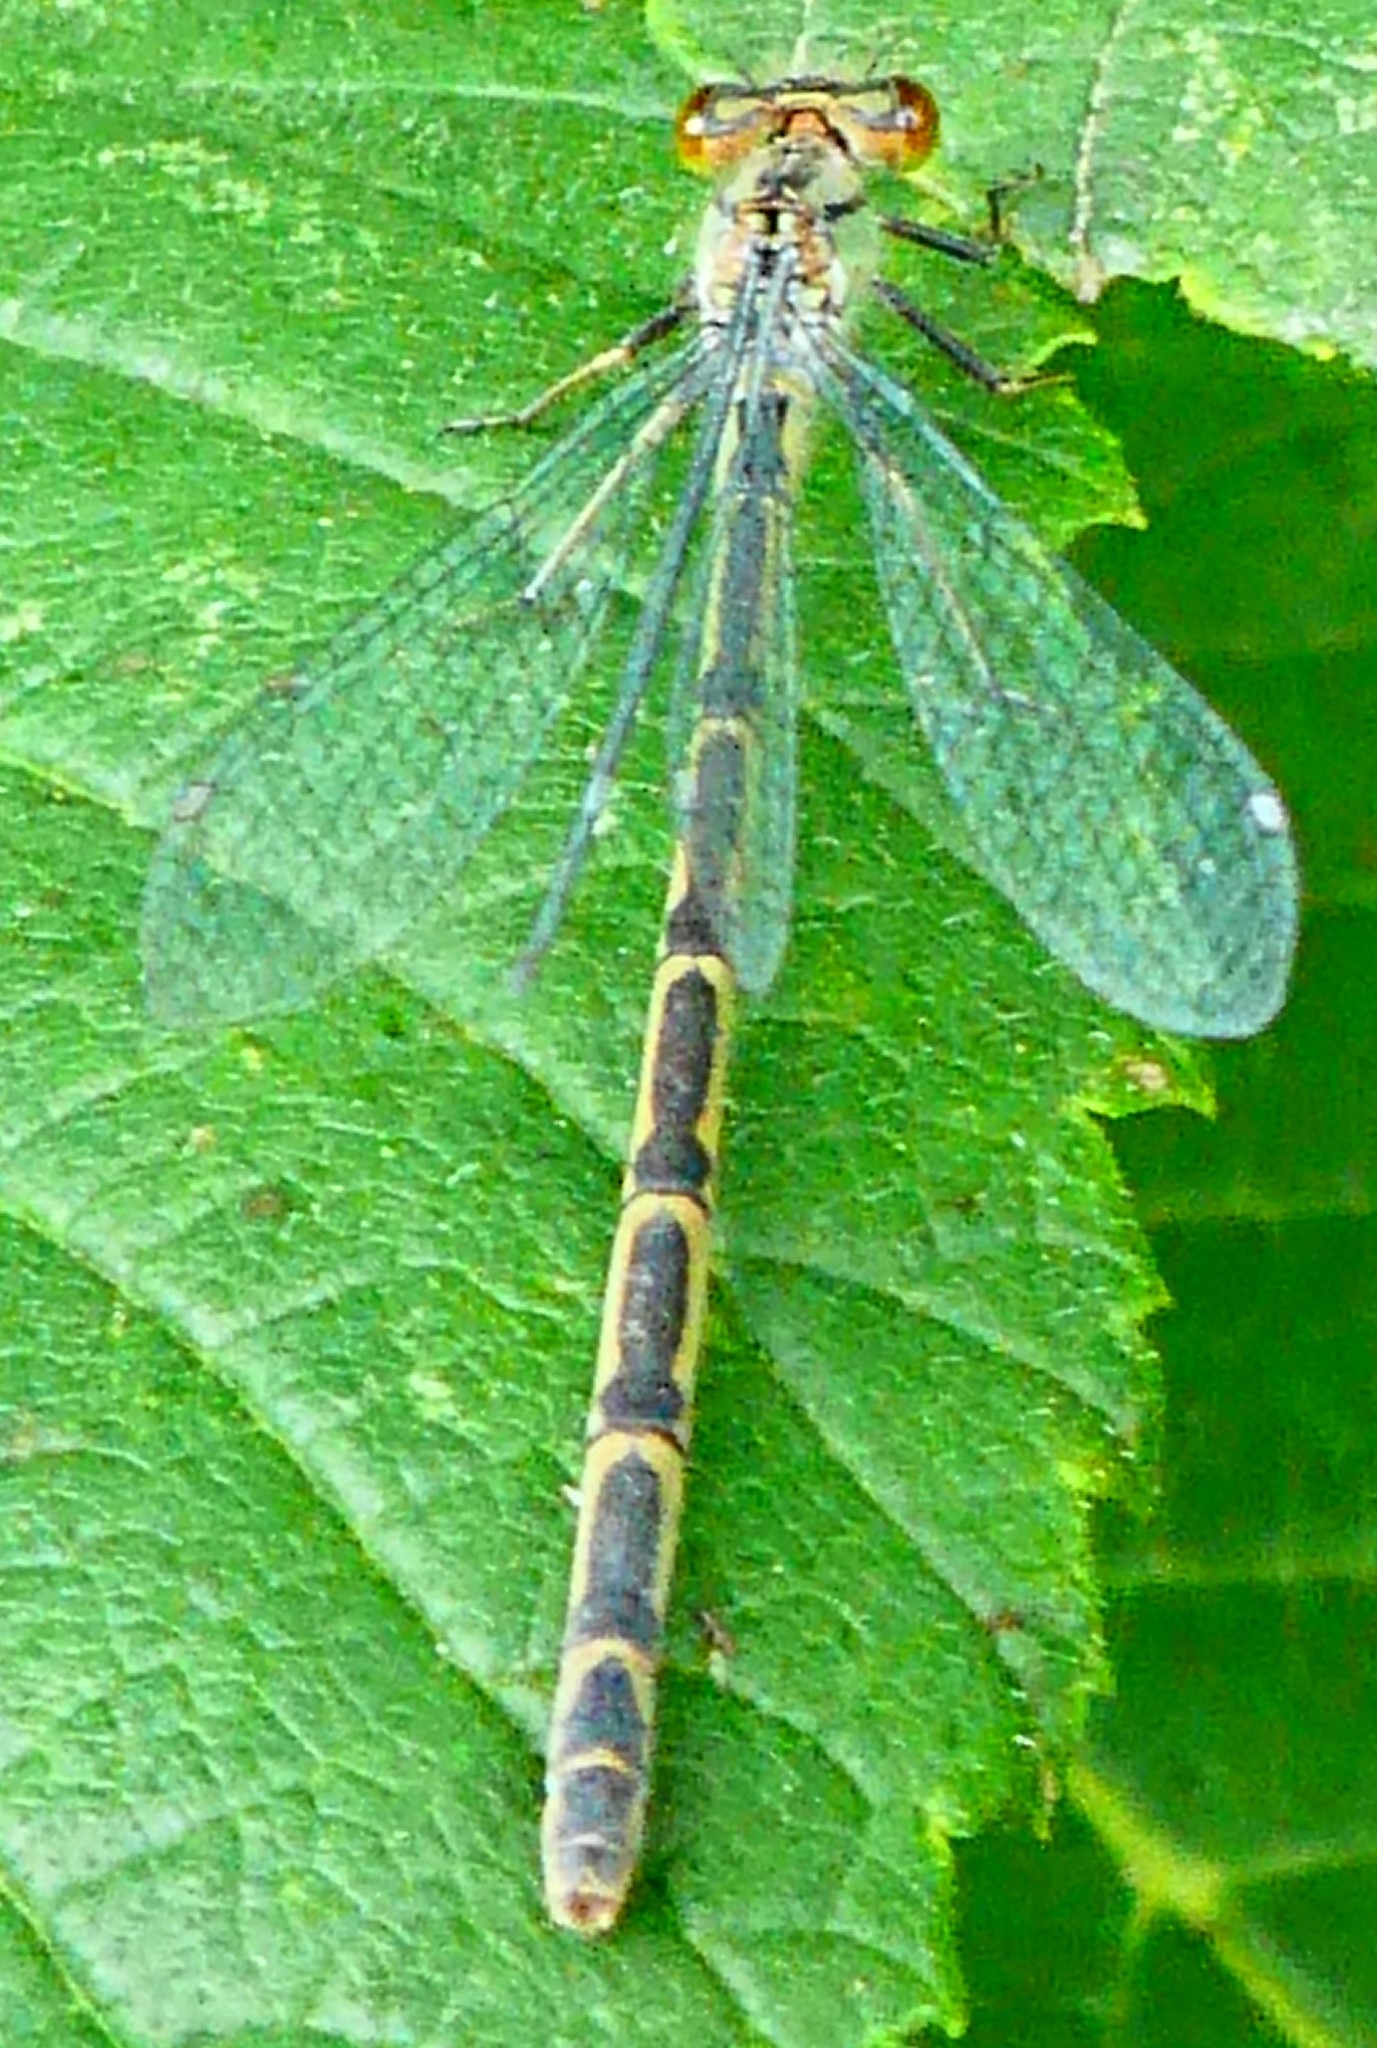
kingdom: Animalia
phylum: Arthropoda
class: Insecta
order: Odonata
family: Coenagrionidae
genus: Enallagma
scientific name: Enallagma cyathigerum
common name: Common blue damselfly
